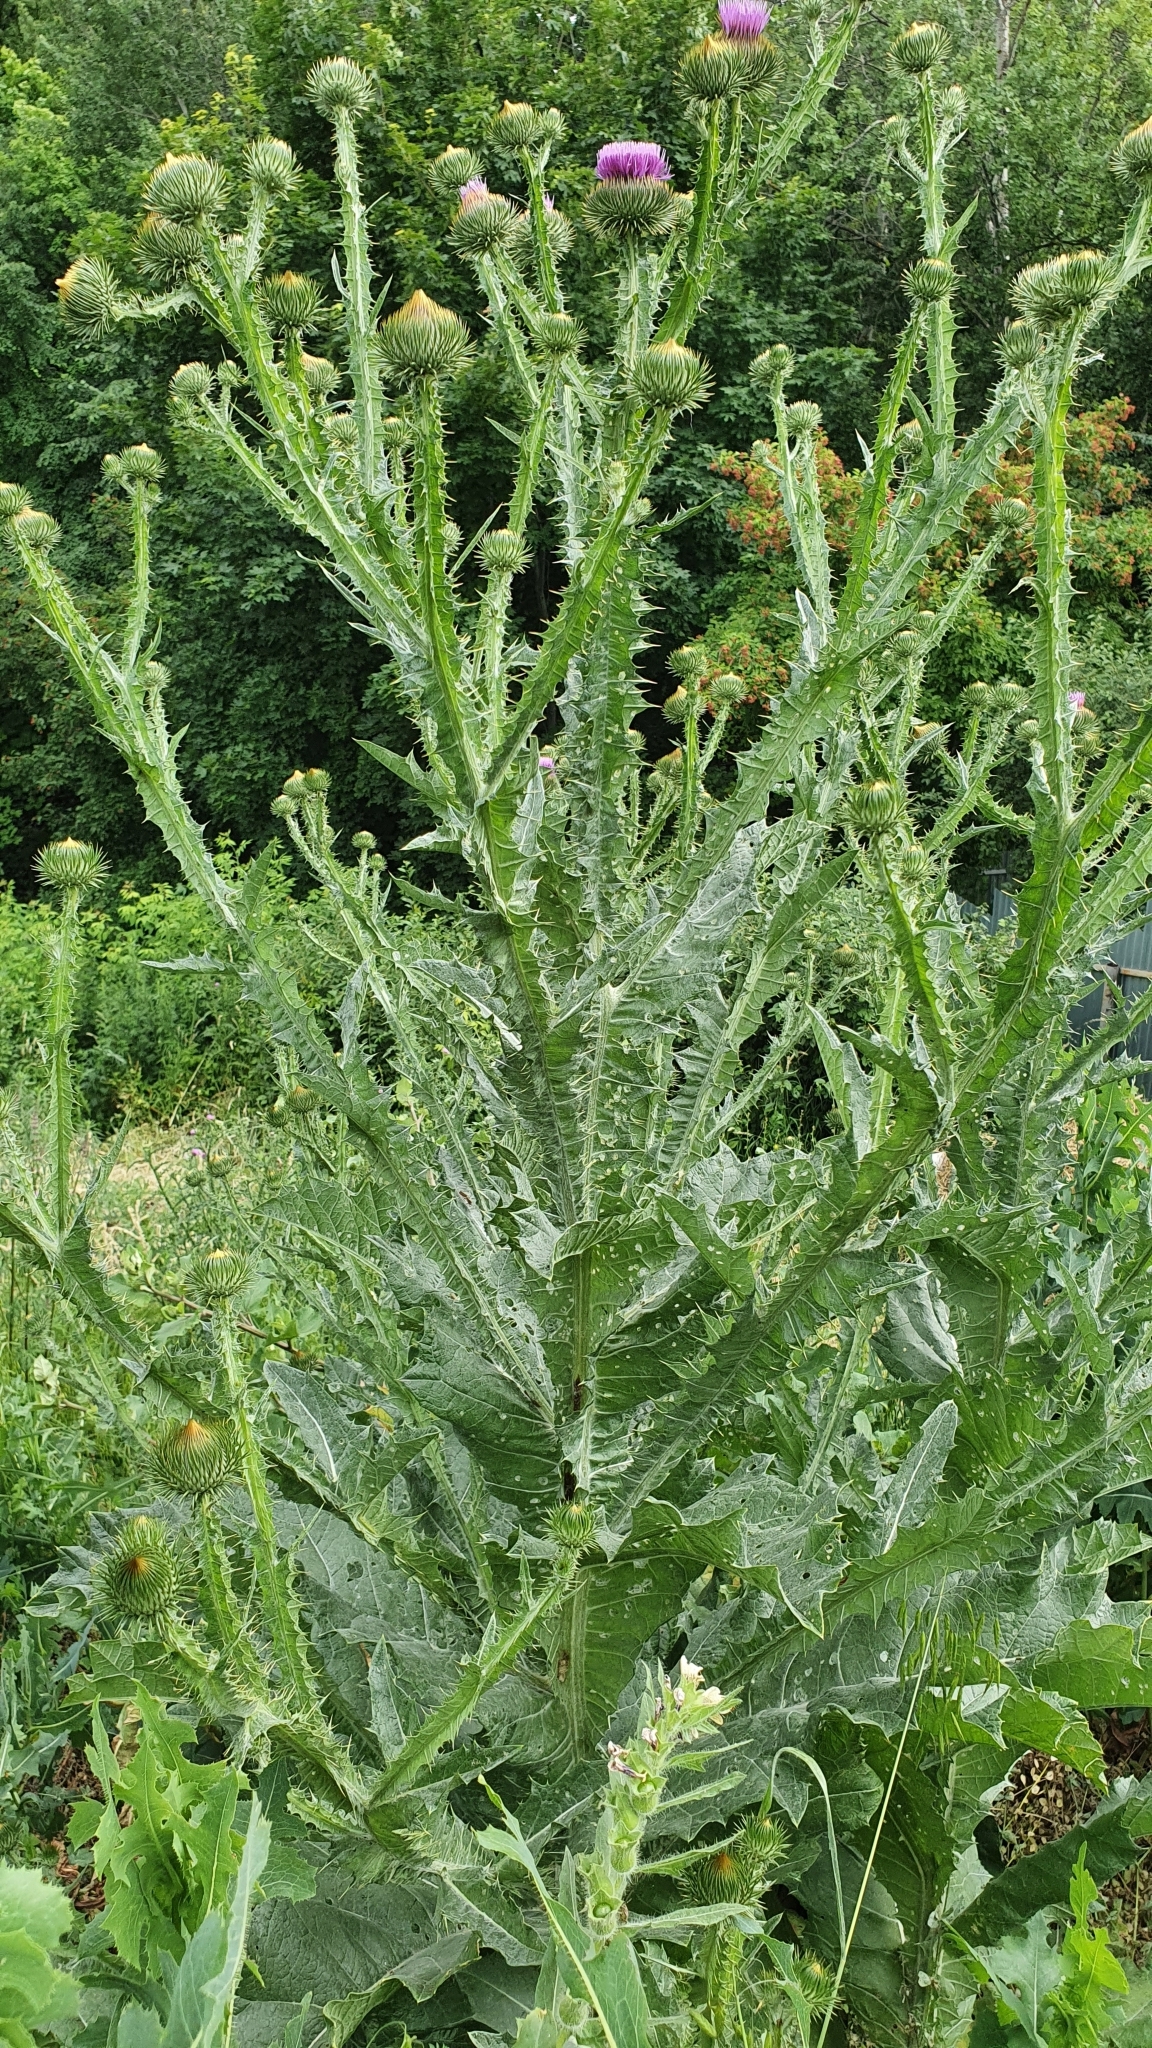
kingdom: Plantae
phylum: Tracheophyta
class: Magnoliopsida
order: Asterales
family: Asteraceae
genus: Onopordum
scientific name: Onopordum acanthium
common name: Scotch thistle
